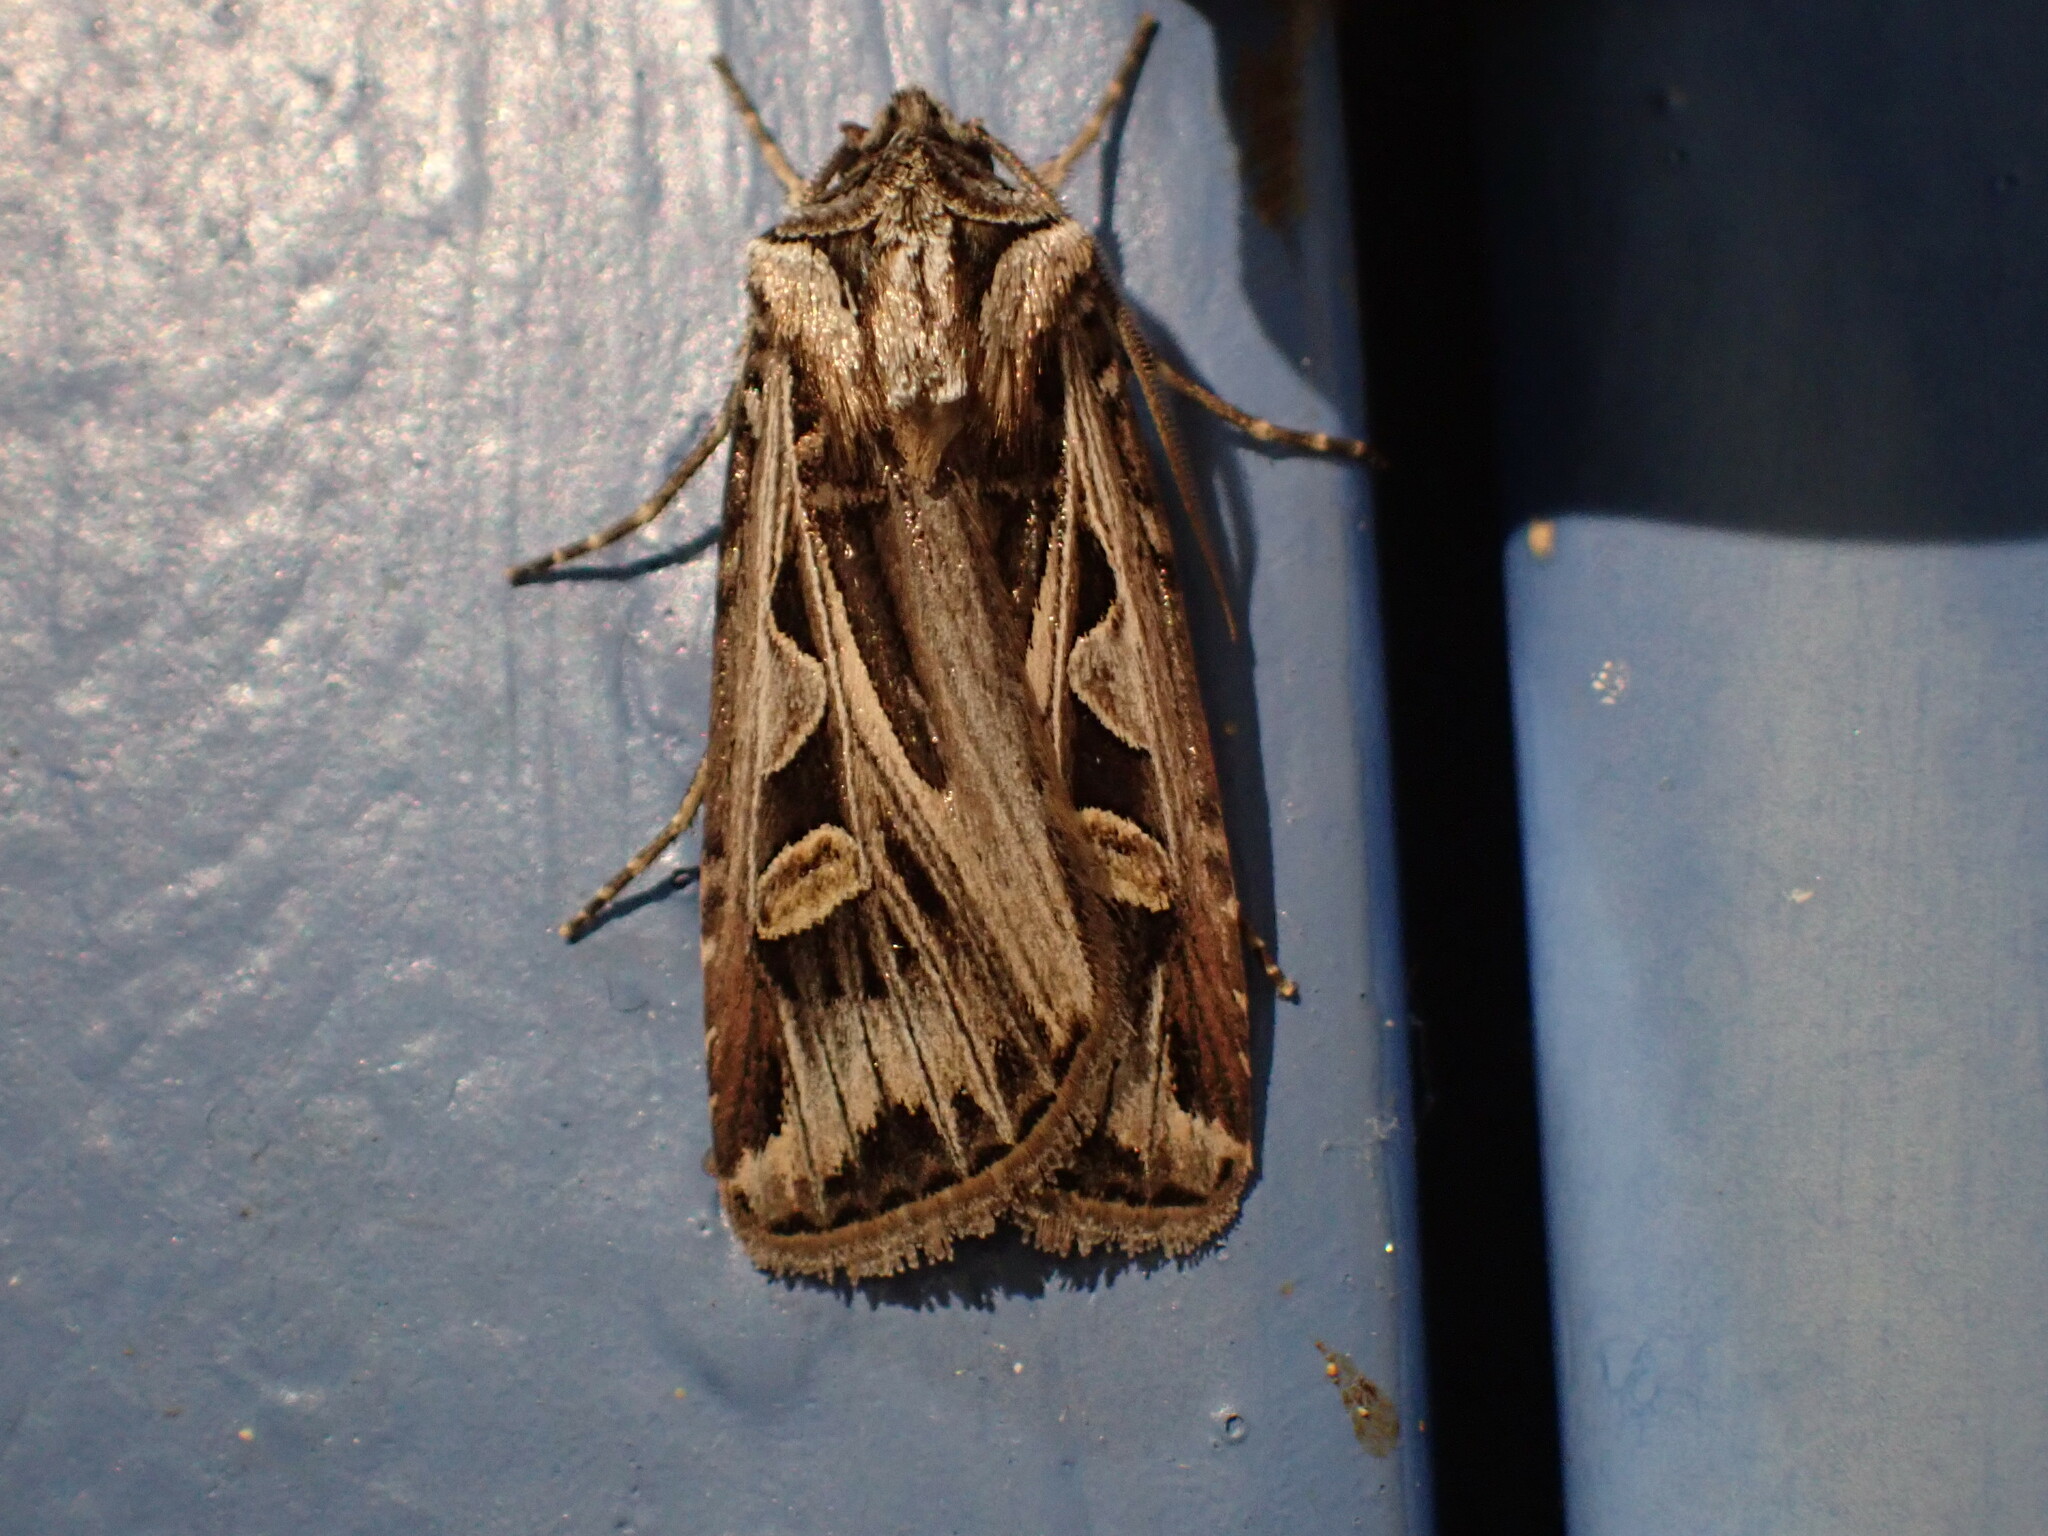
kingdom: Animalia
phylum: Arthropoda
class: Insecta
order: Lepidoptera
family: Noctuidae
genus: Feltia
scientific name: Feltia jaculifera
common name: Dingy cutworm moth
